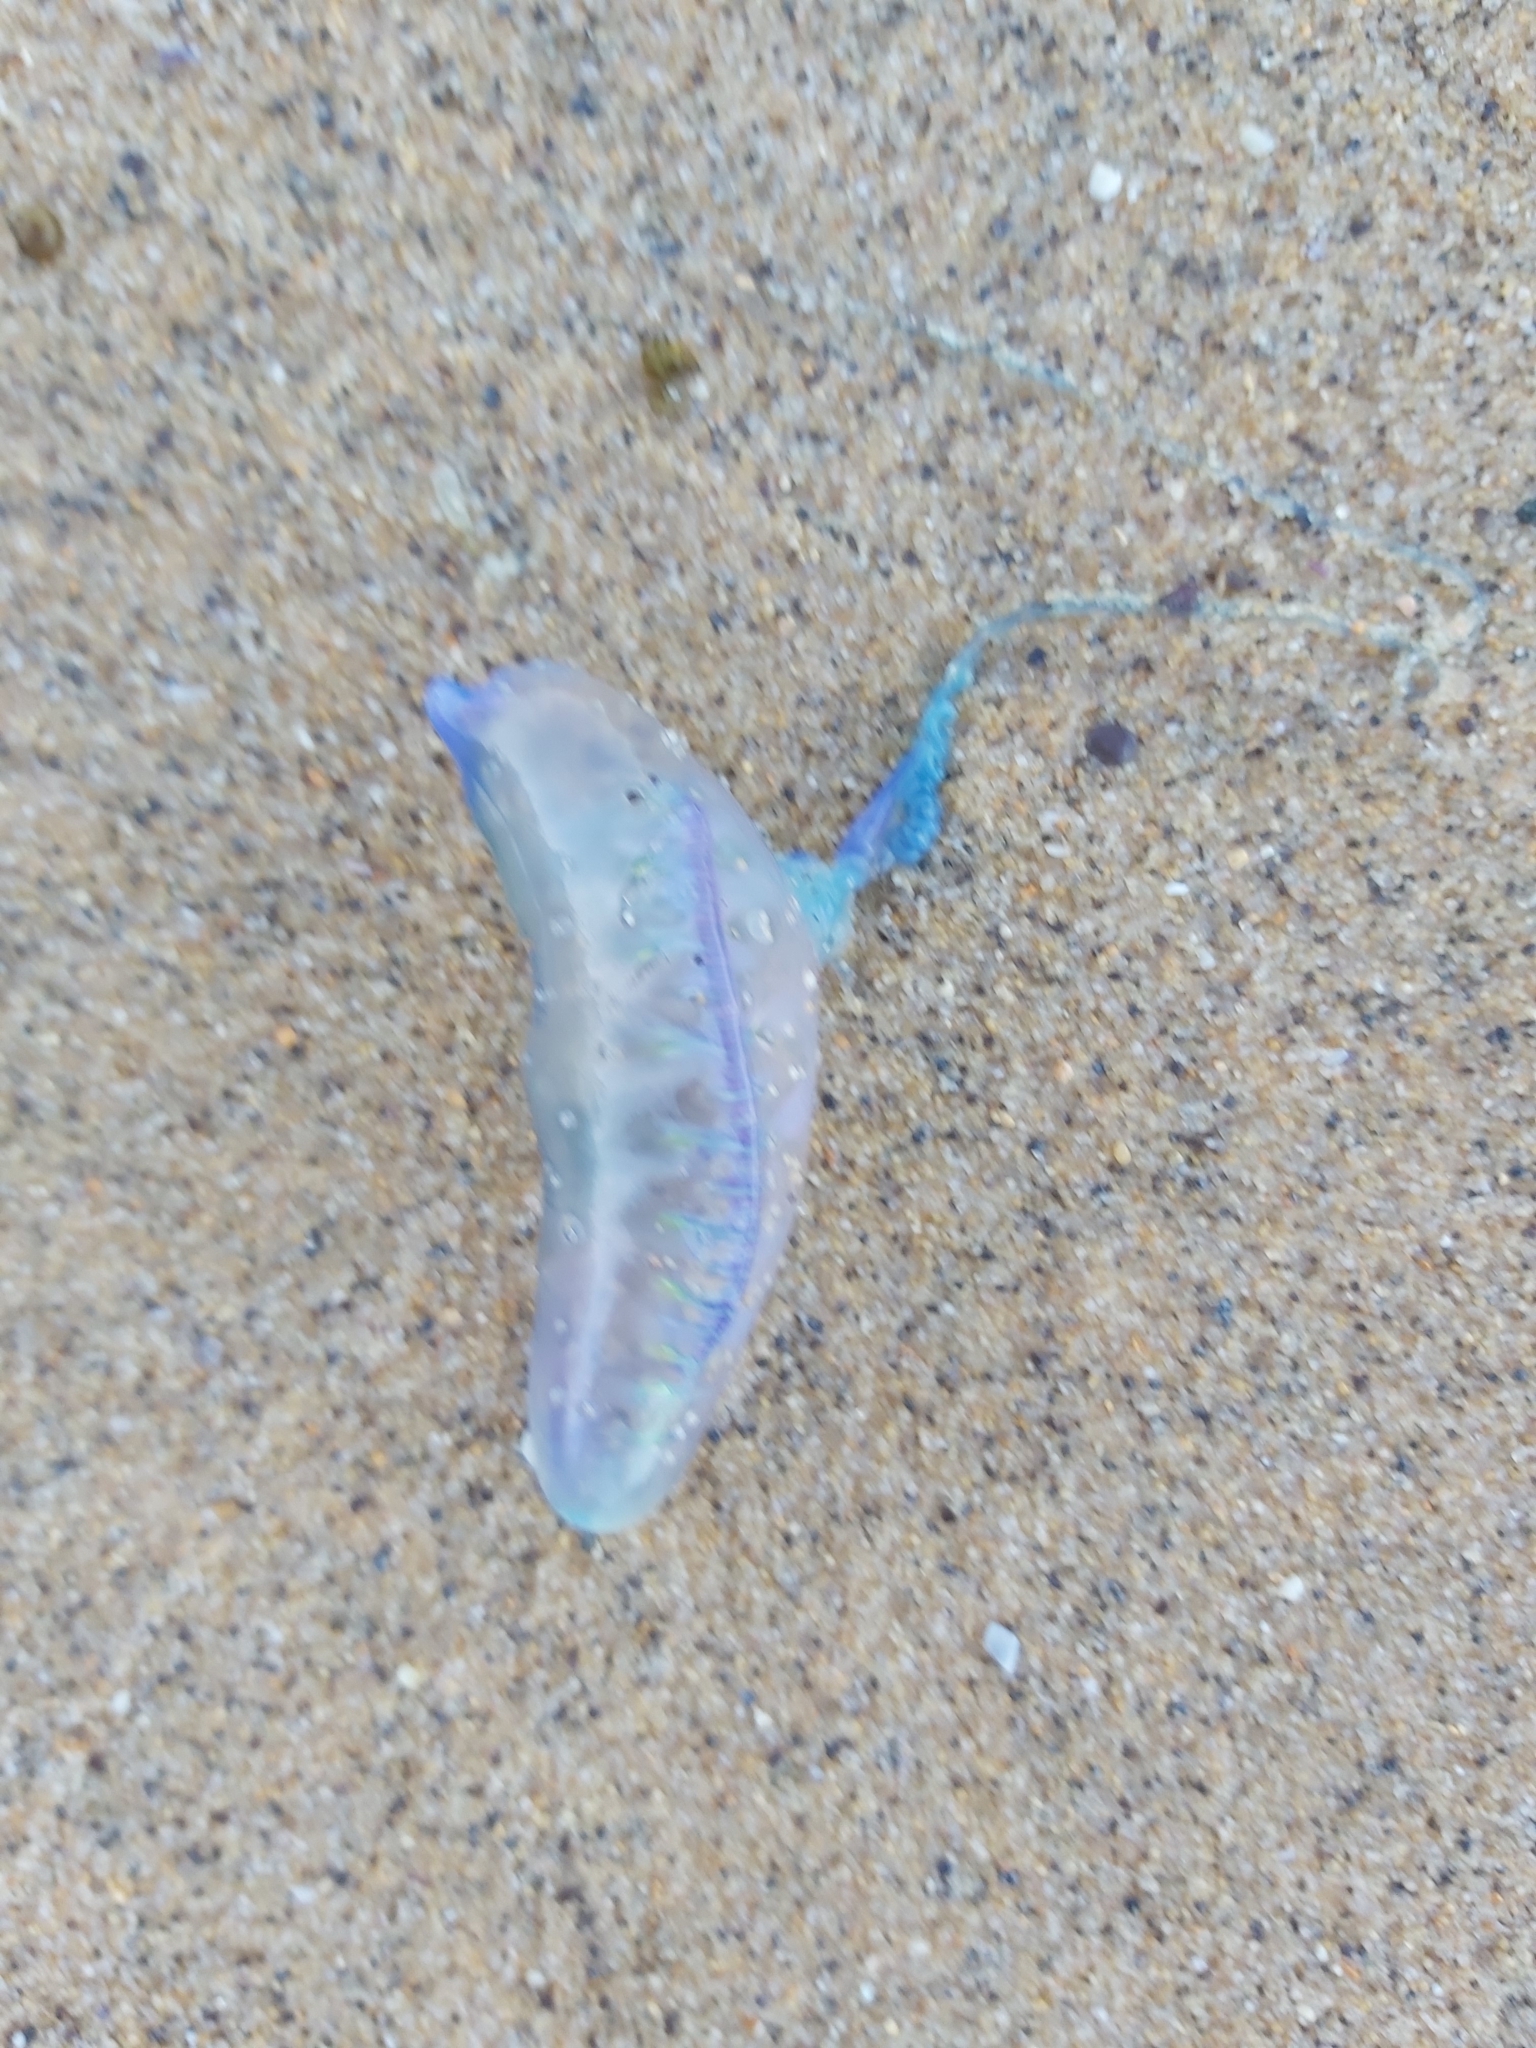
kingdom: Animalia
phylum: Cnidaria
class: Hydrozoa
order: Siphonophorae
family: Physaliidae
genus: Physalia
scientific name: Physalia physalis
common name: Portuguese man-of-war
